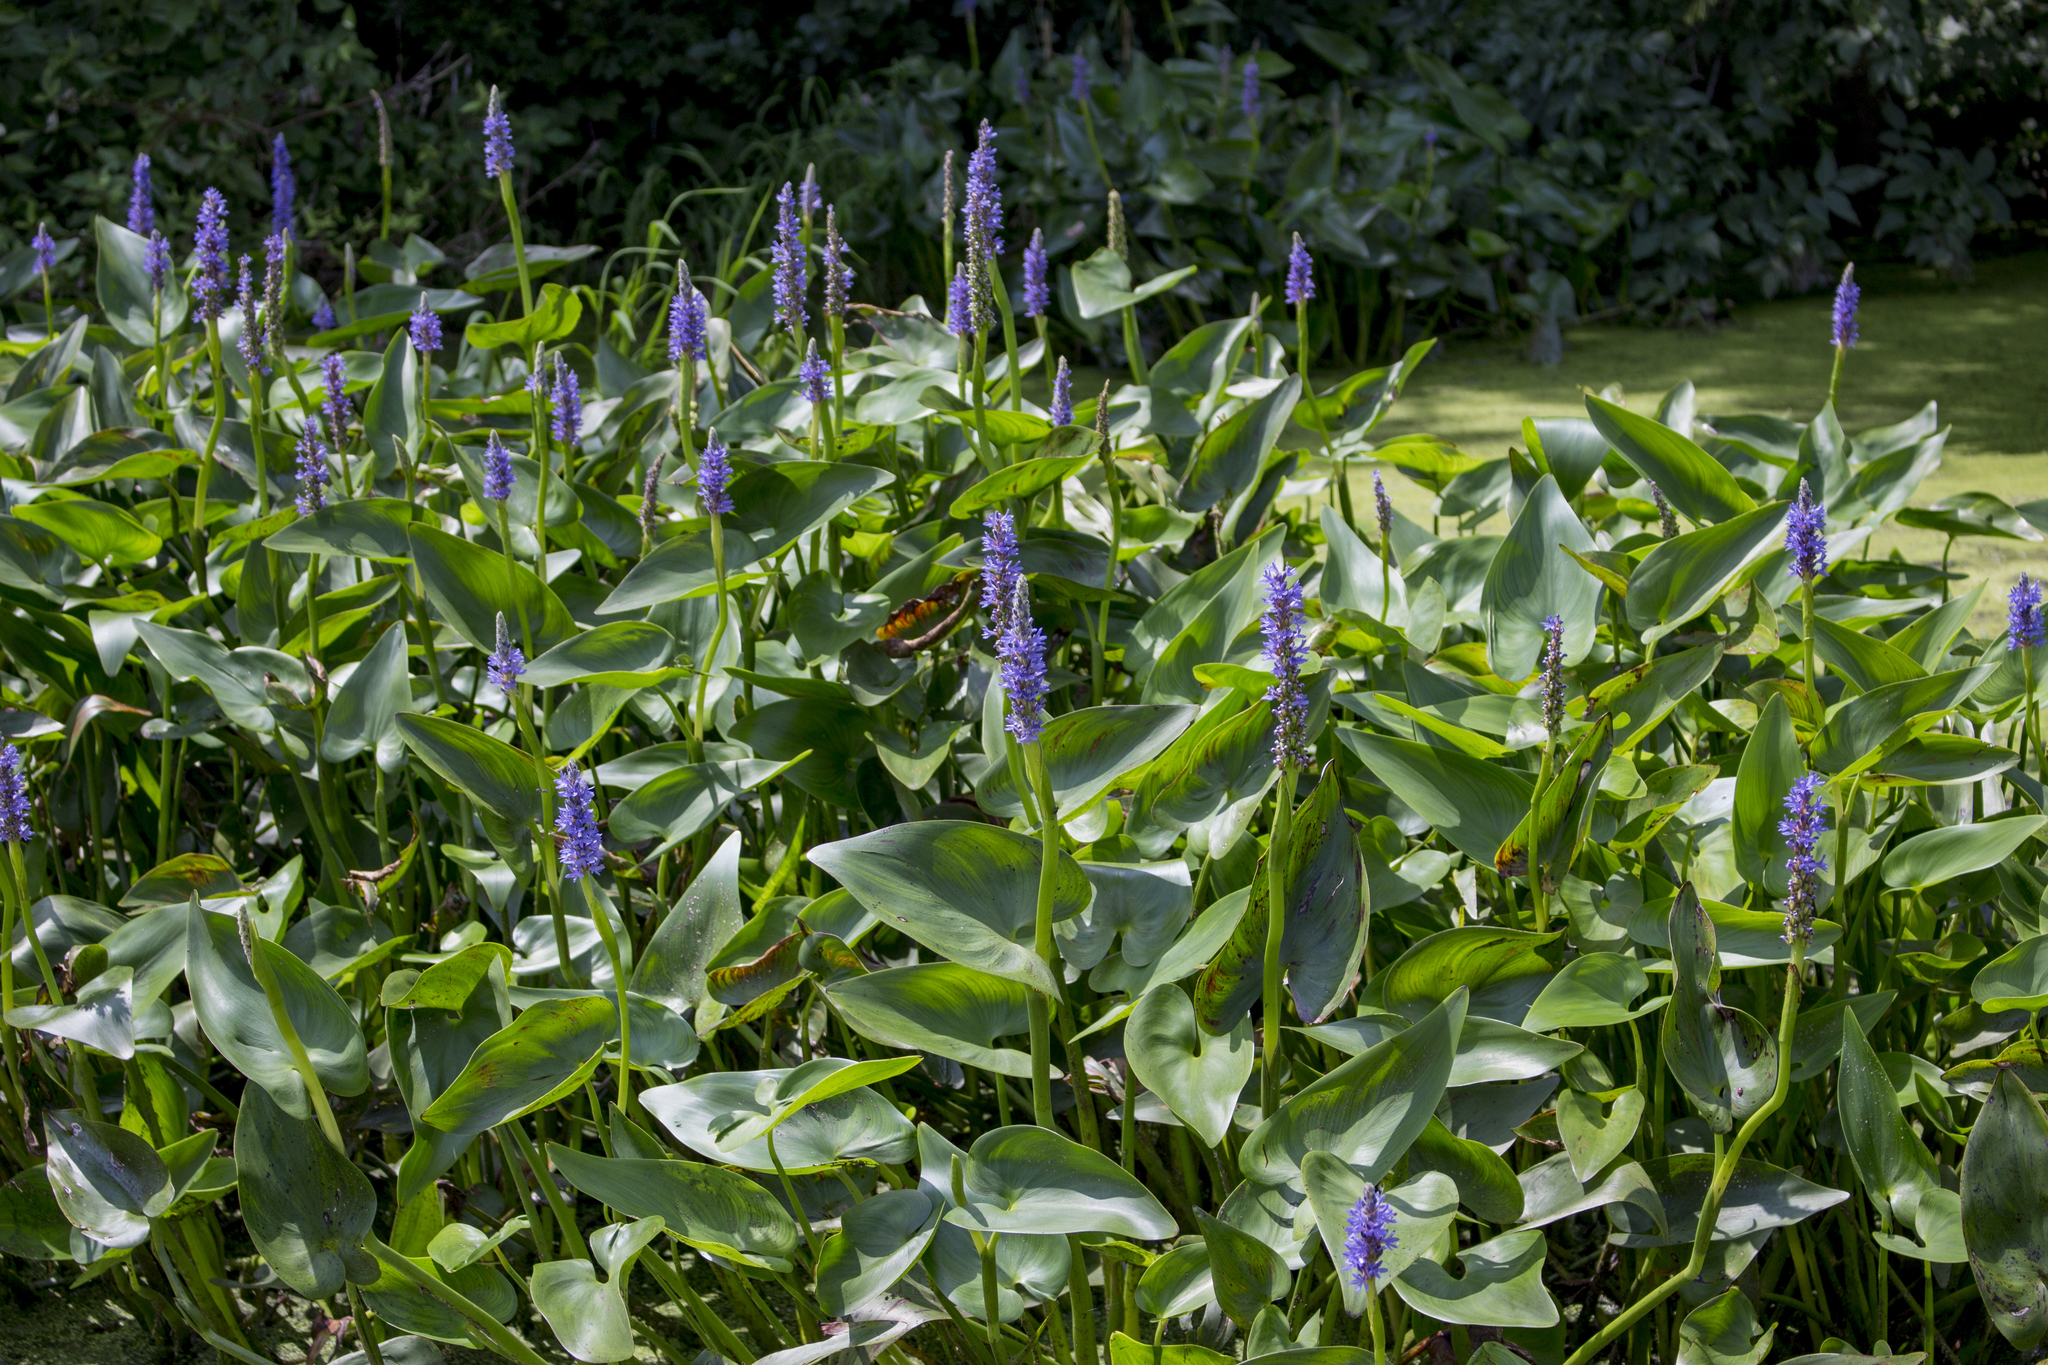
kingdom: Plantae
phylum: Tracheophyta
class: Liliopsida
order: Commelinales
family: Pontederiaceae
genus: Pontederia
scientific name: Pontederia cordata
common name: Pickerelweed
